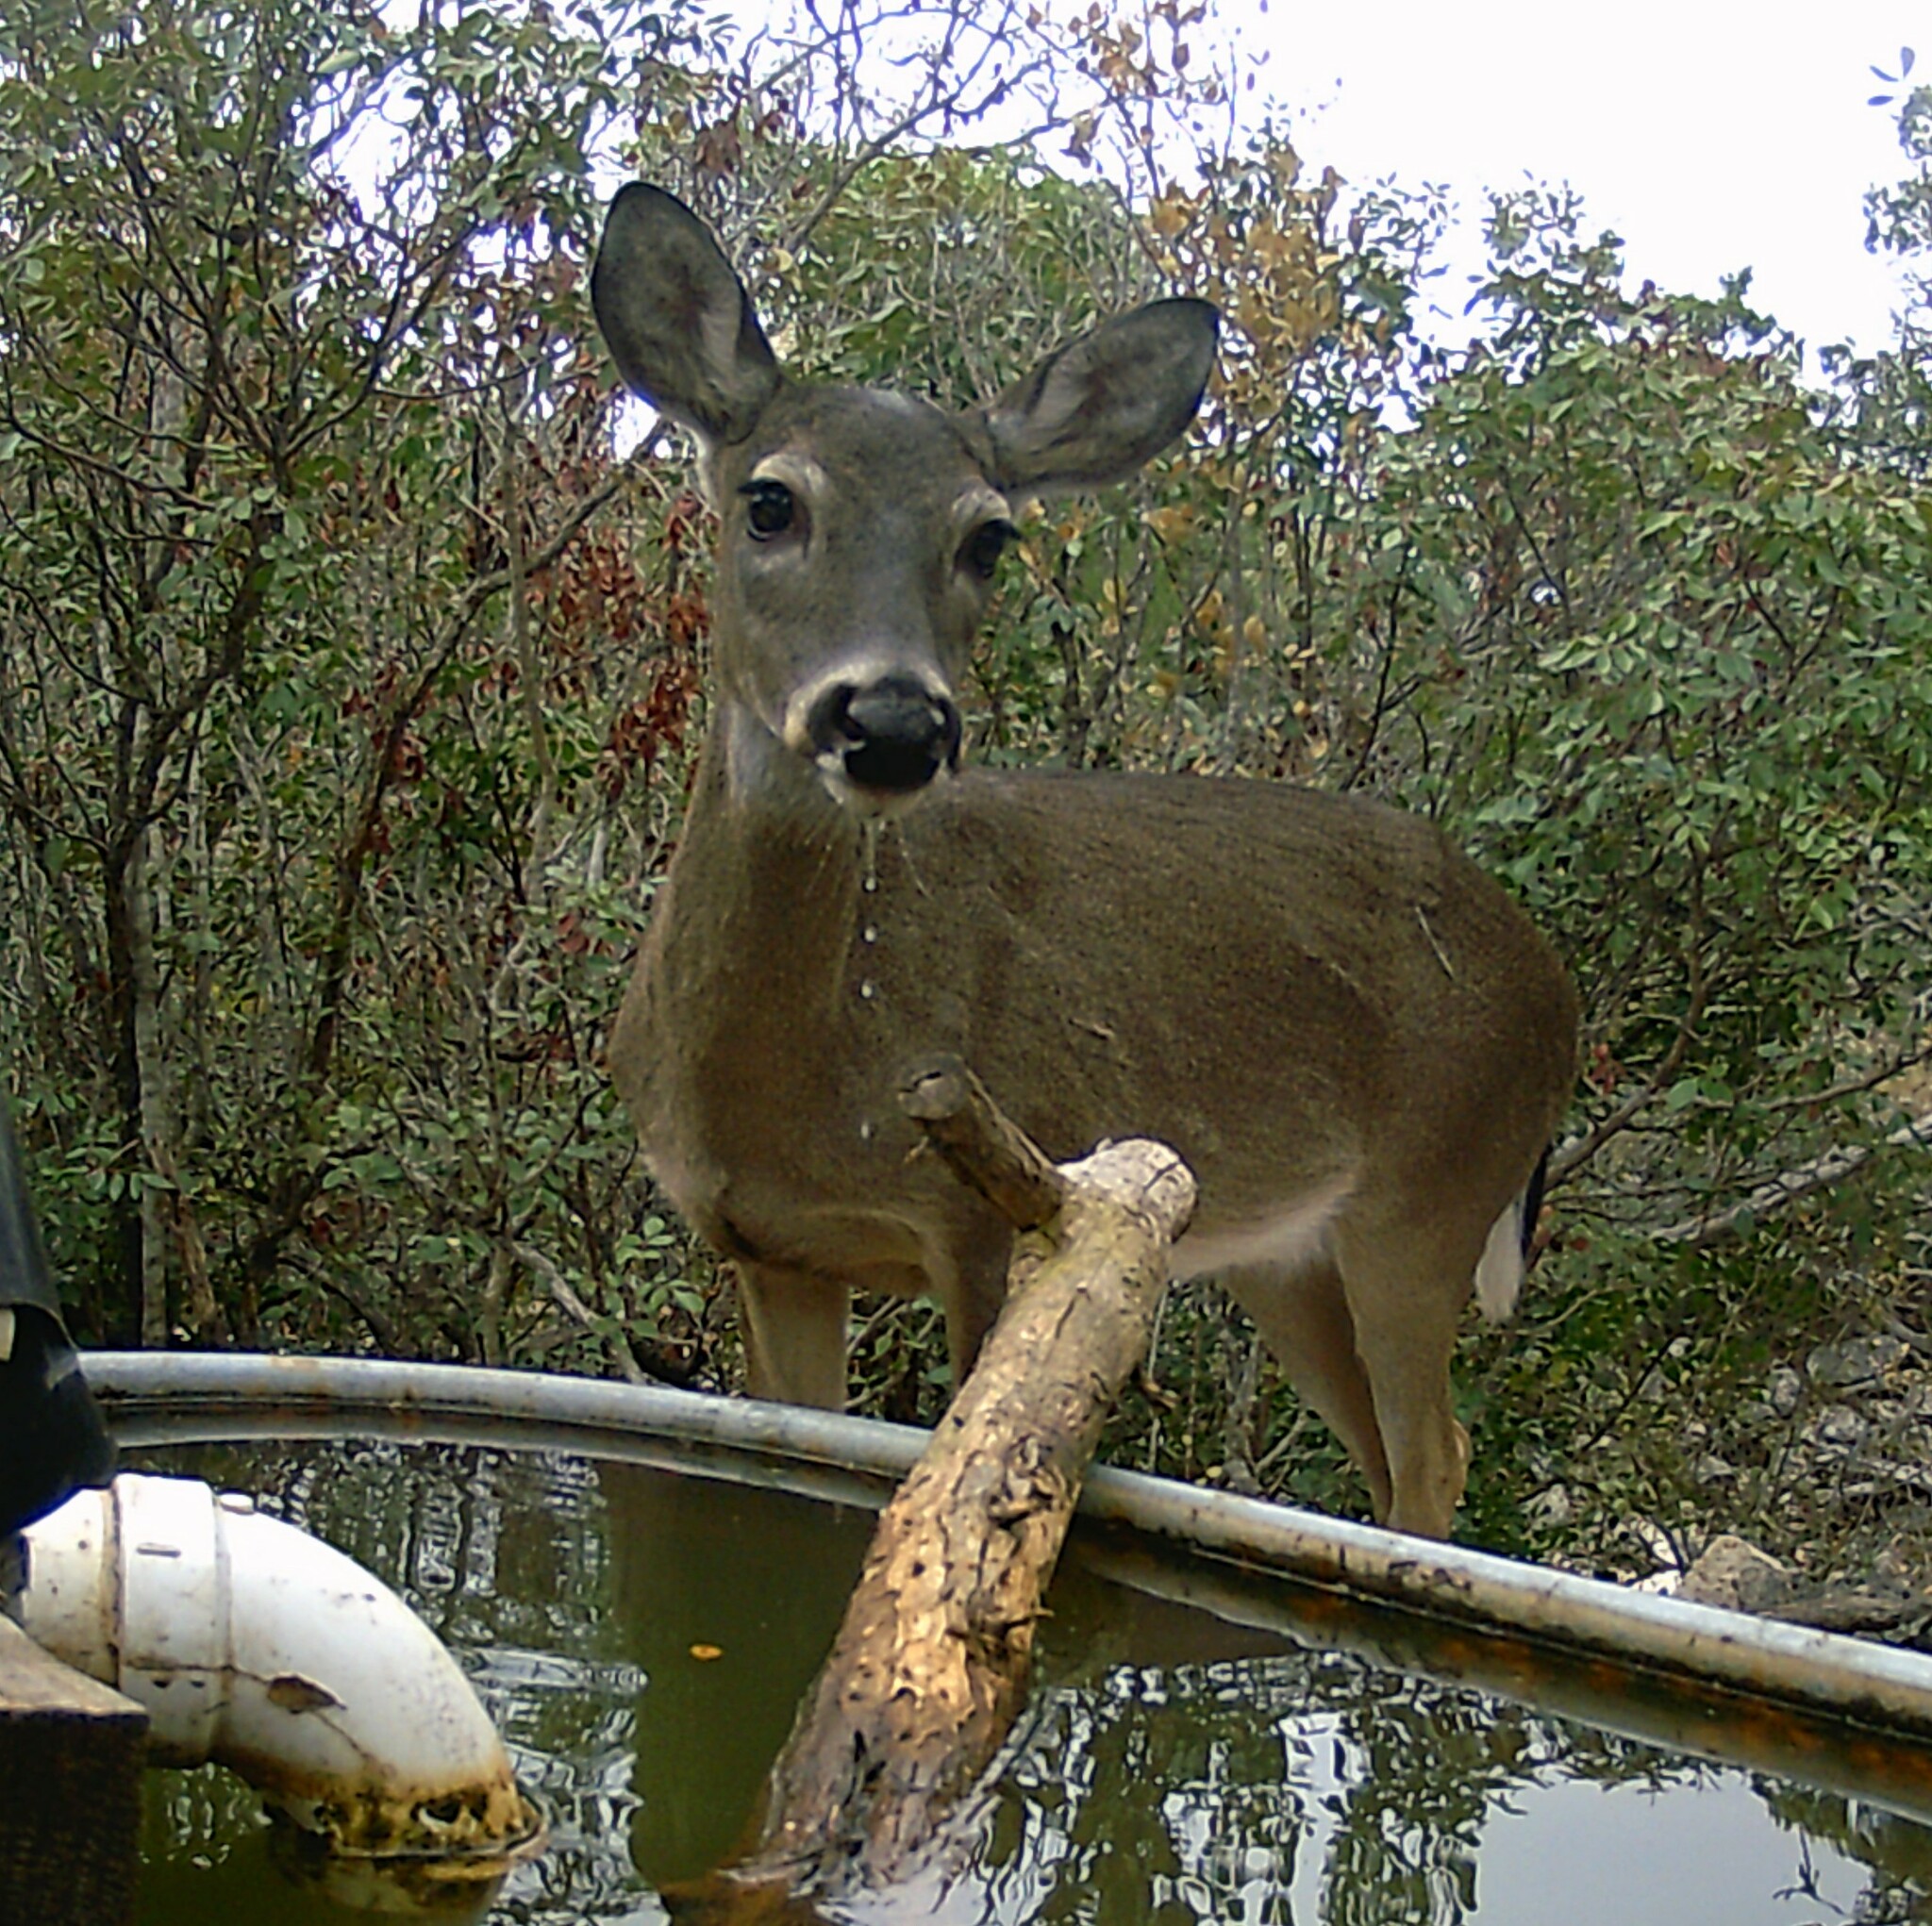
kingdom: Animalia
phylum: Chordata
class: Mammalia
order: Artiodactyla
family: Cervidae
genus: Odocoileus
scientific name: Odocoileus virginianus
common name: White-tailed deer
